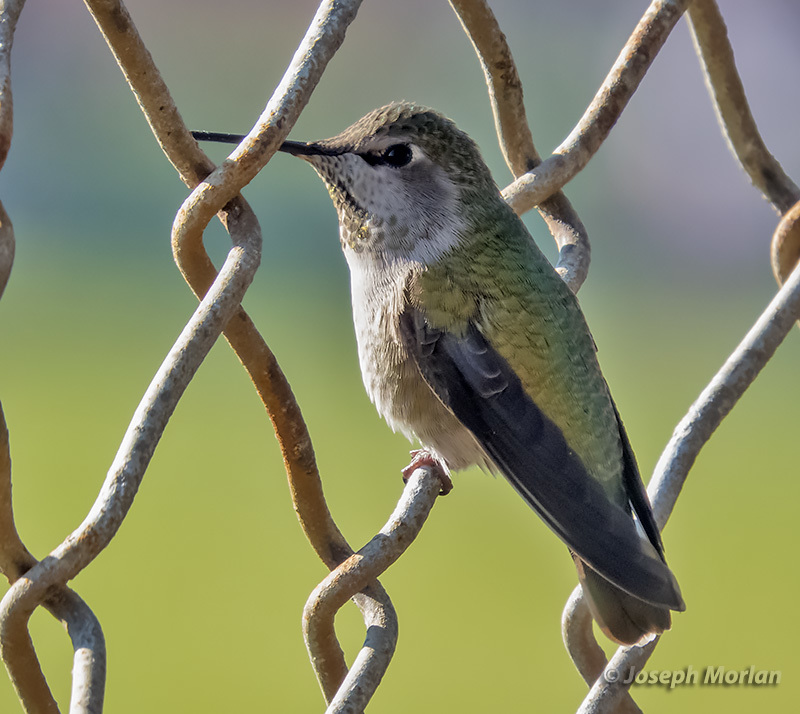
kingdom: Animalia
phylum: Chordata
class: Aves
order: Apodiformes
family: Trochilidae
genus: Calypte
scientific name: Calypte anna
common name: Anna's hummingbird
